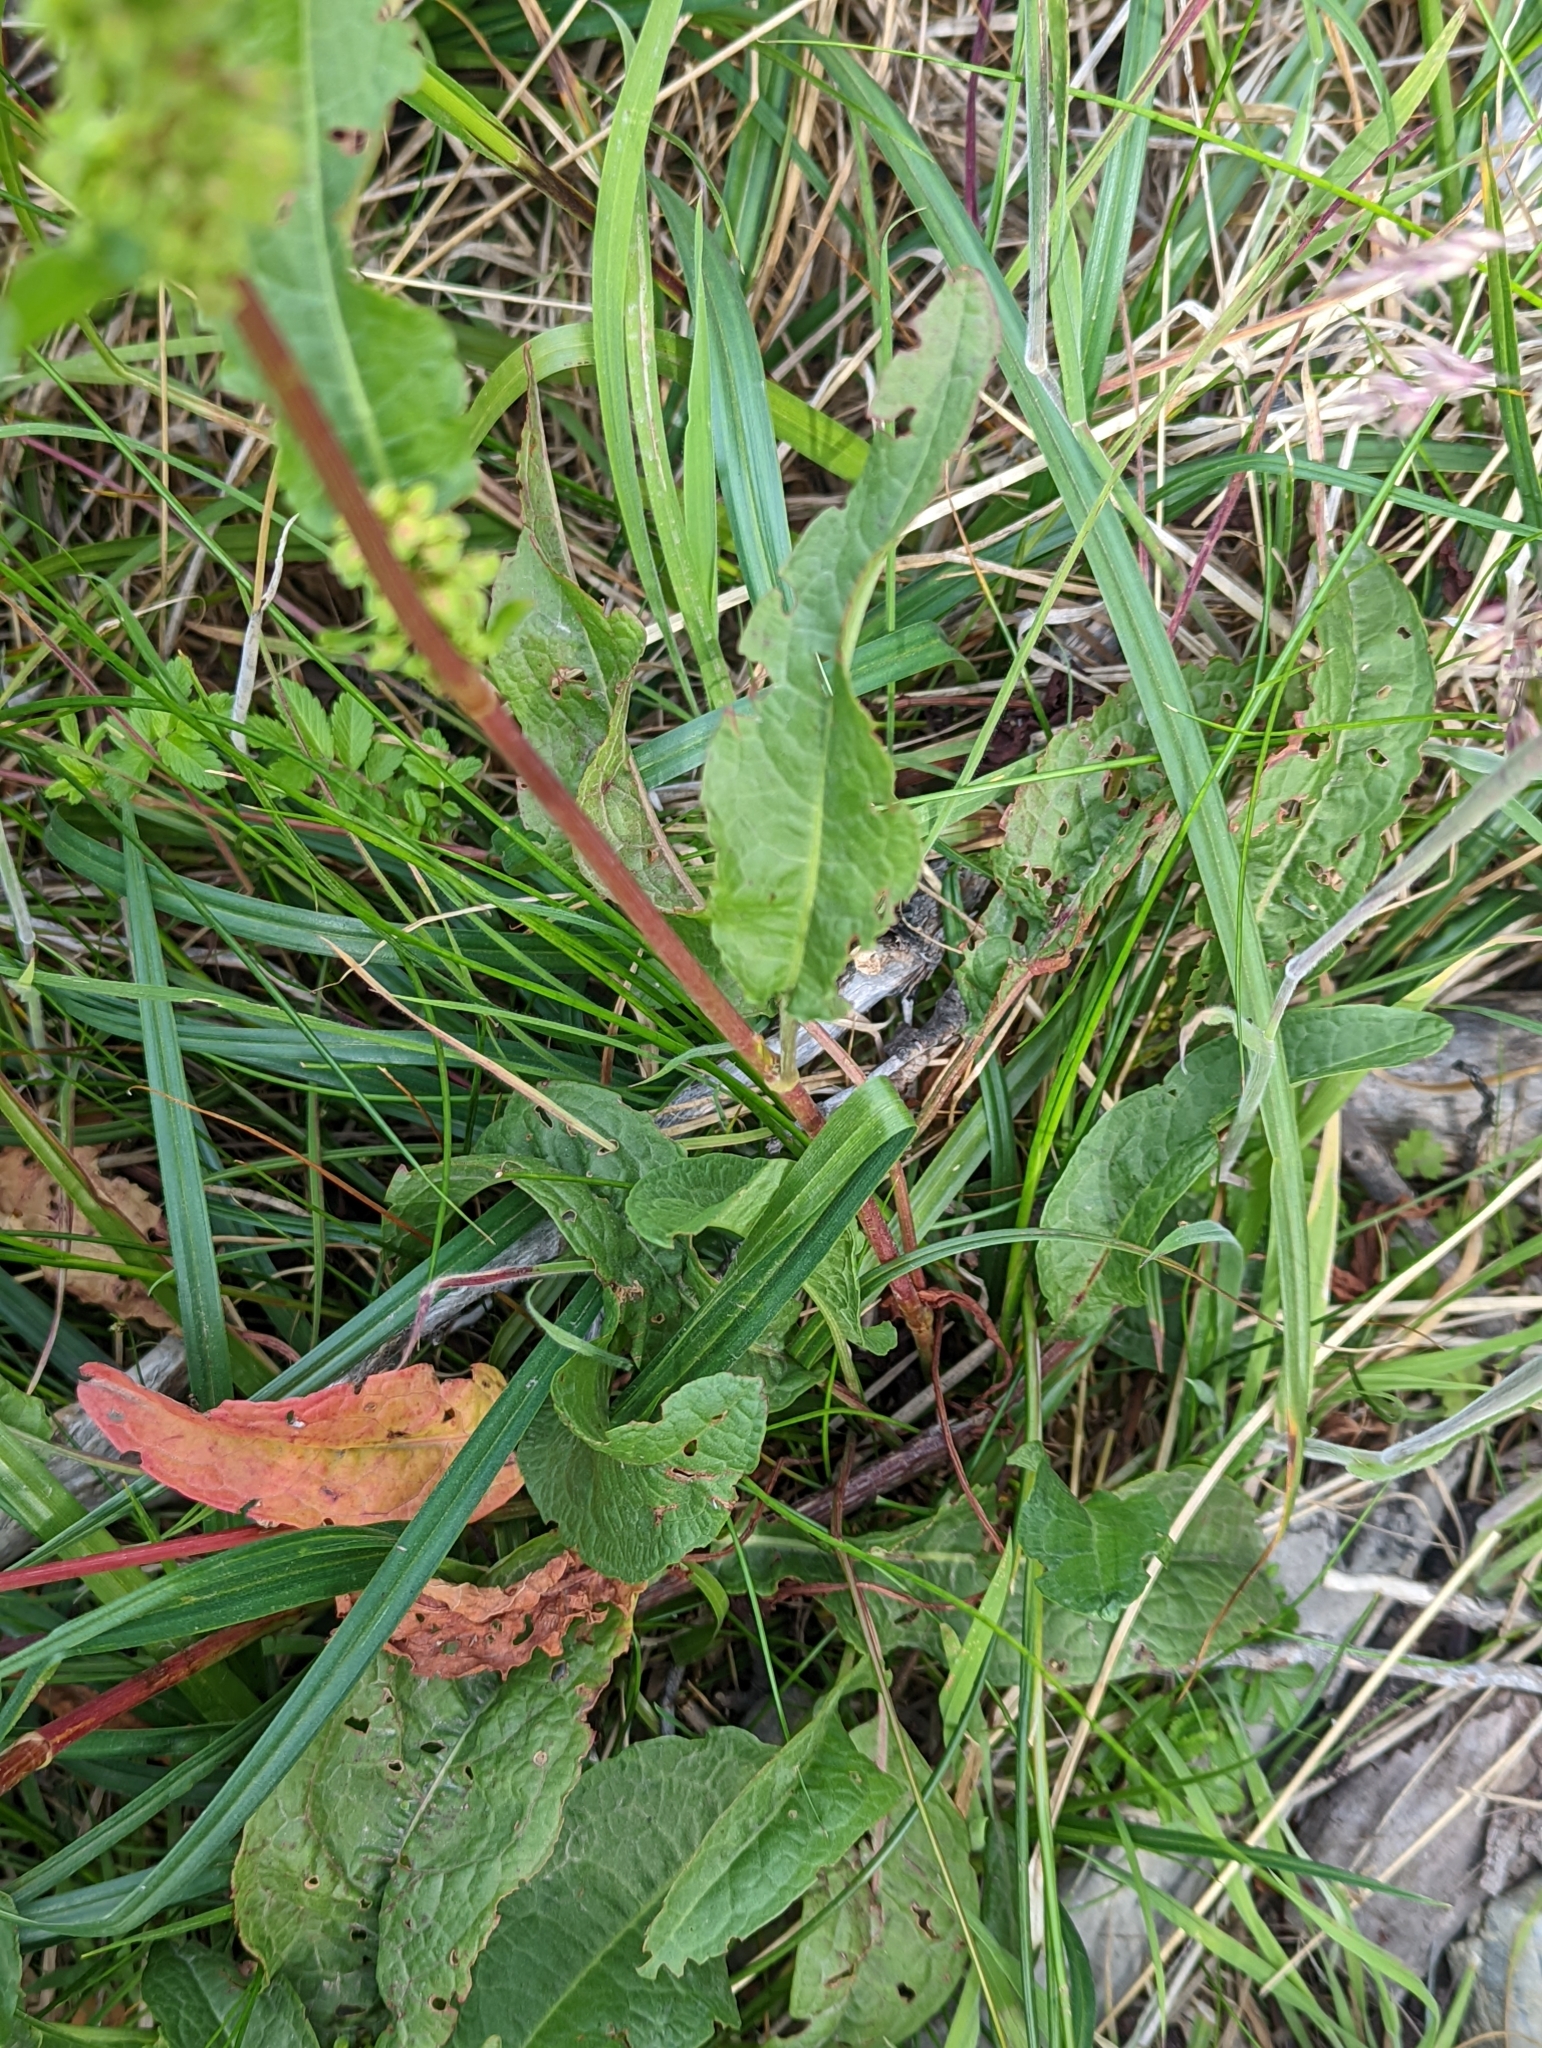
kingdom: Plantae
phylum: Tracheophyta
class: Magnoliopsida
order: Caryophyllales
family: Polygonaceae
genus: Rumex
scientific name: Rumex crispus
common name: Curled dock
